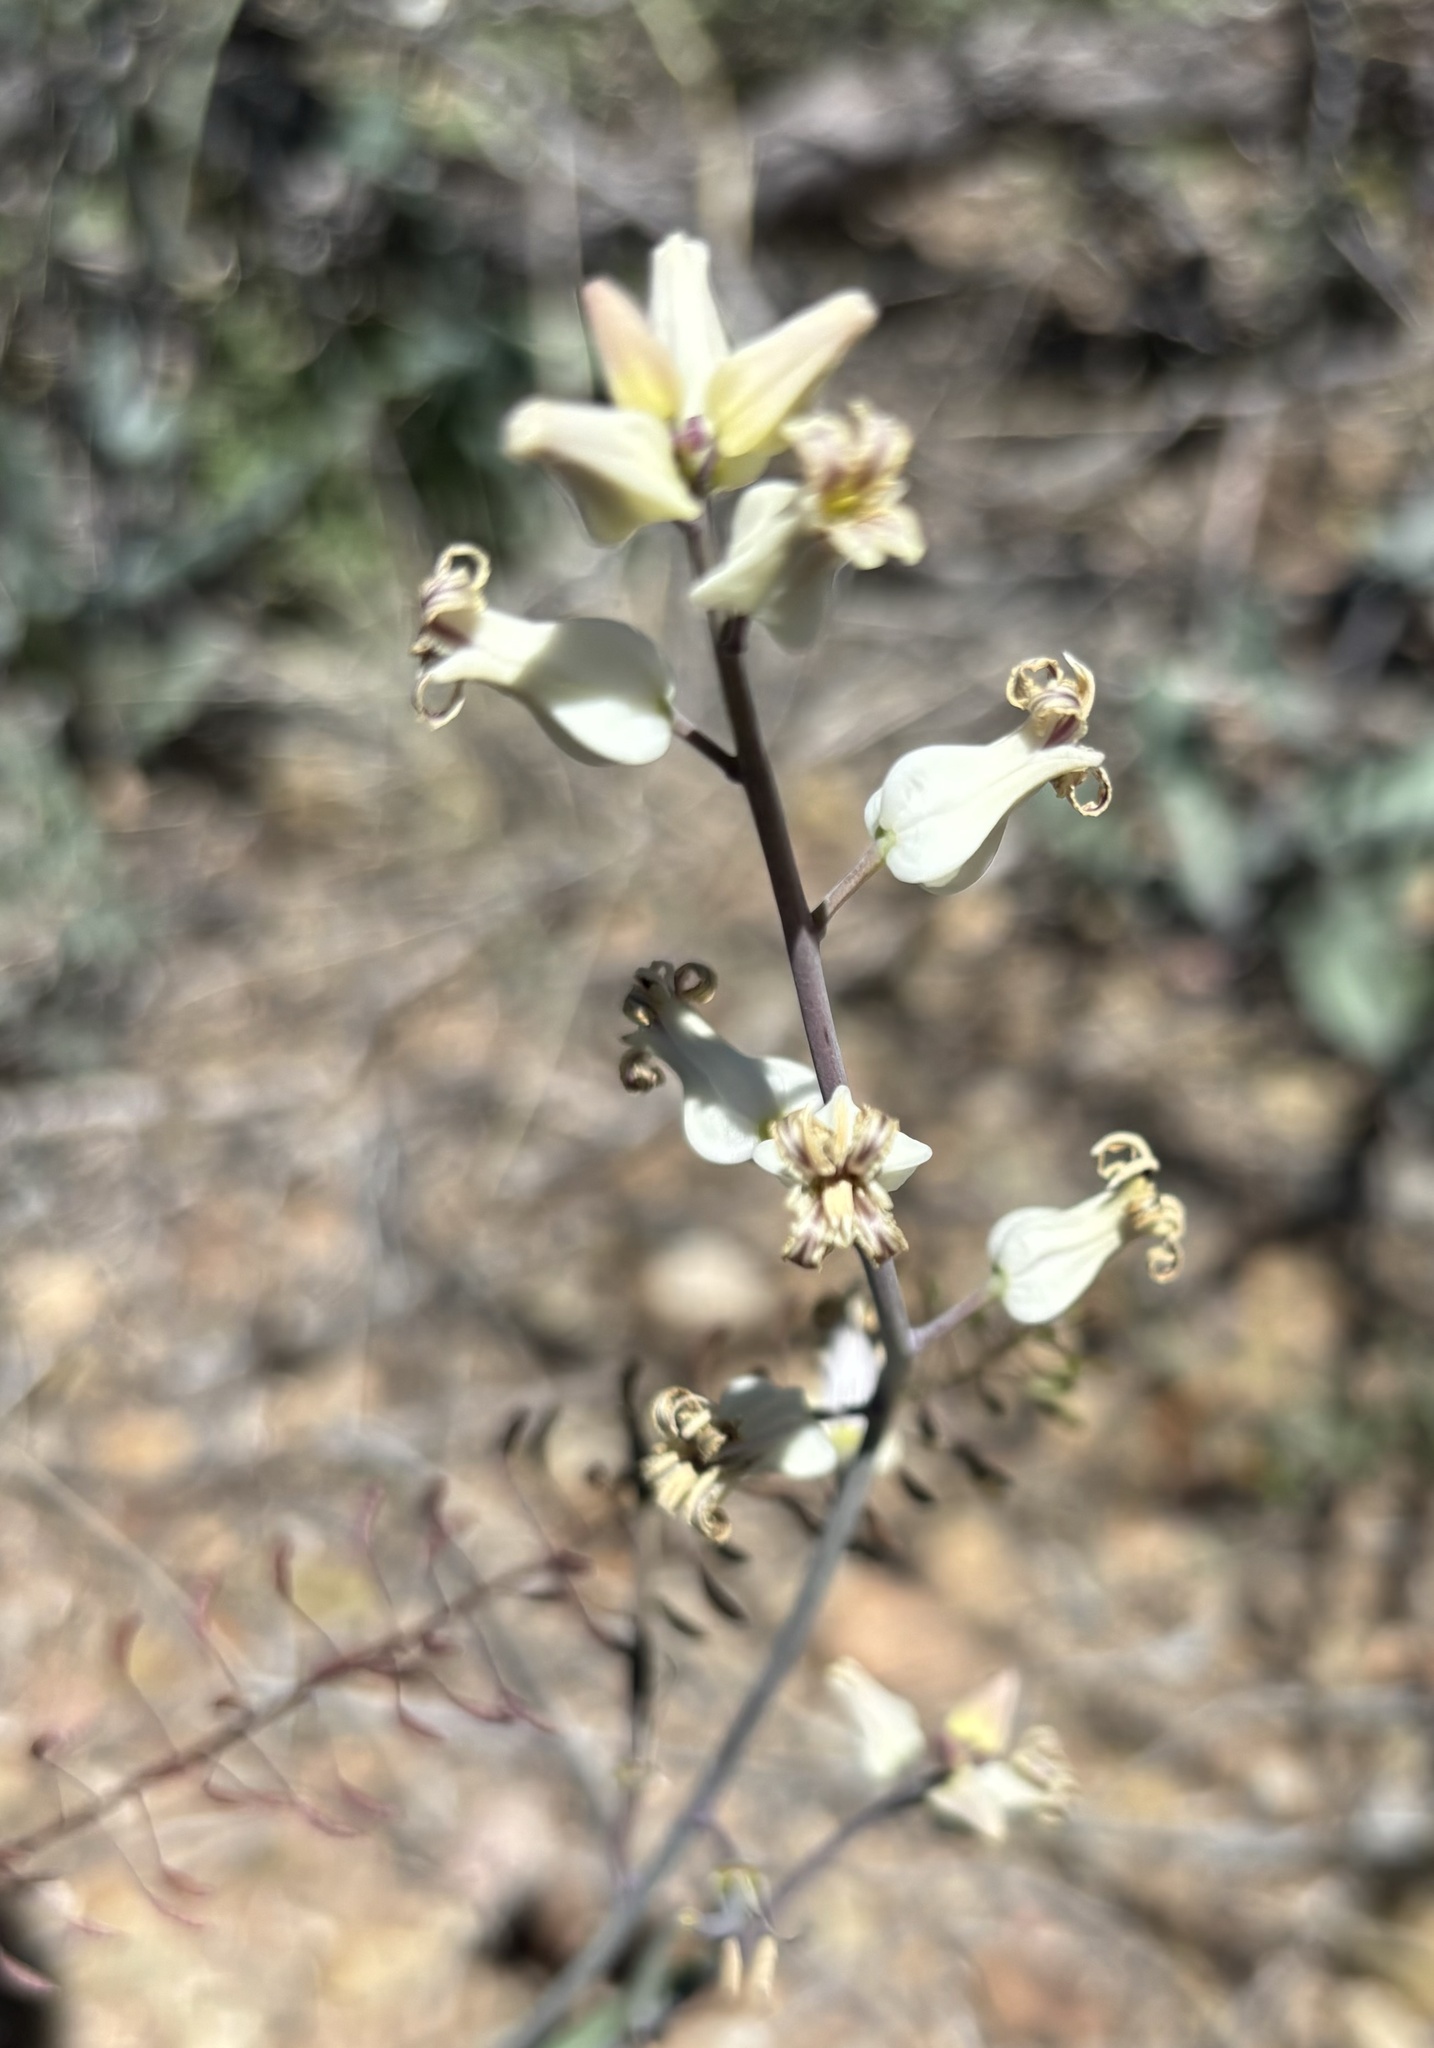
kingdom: Plantae
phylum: Tracheophyta
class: Magnoliopsida
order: Brassicales
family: Brassicaceae
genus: Streptanthus
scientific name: Streptanthus carinatus
